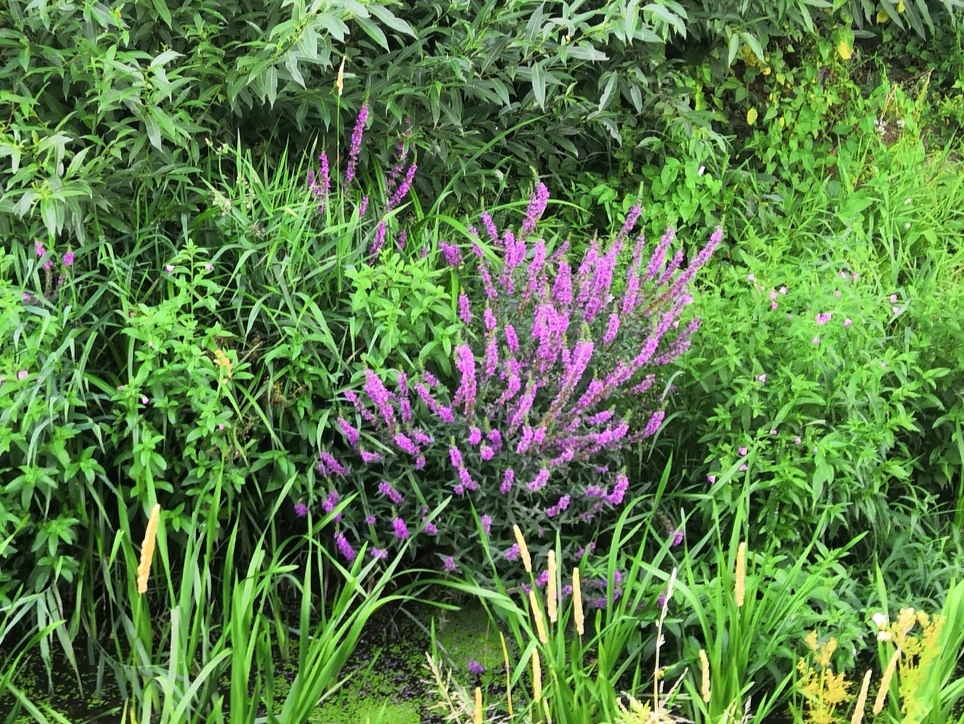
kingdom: Plantae
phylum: Tracheophyta
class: Magnoliopsida
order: Myrtales
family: Lythraceae
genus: Lythrum
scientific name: Lythrum salicaria
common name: Purple loosestrife
